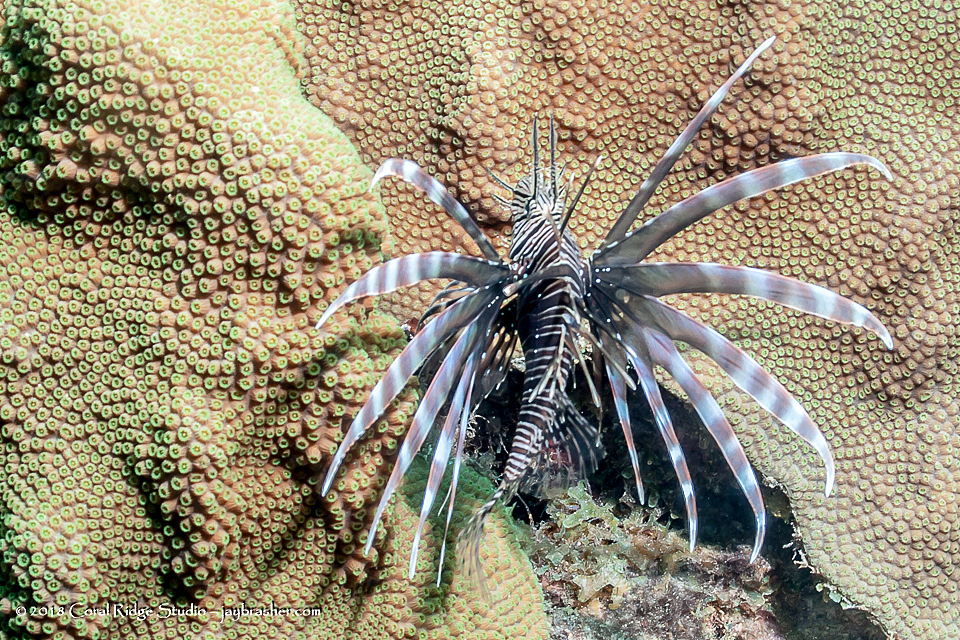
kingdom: Animalia
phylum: Chordata
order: Scorpaeniformes
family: Scorpaenidae
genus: Pterois
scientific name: Pterois volitans
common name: Lionfish
